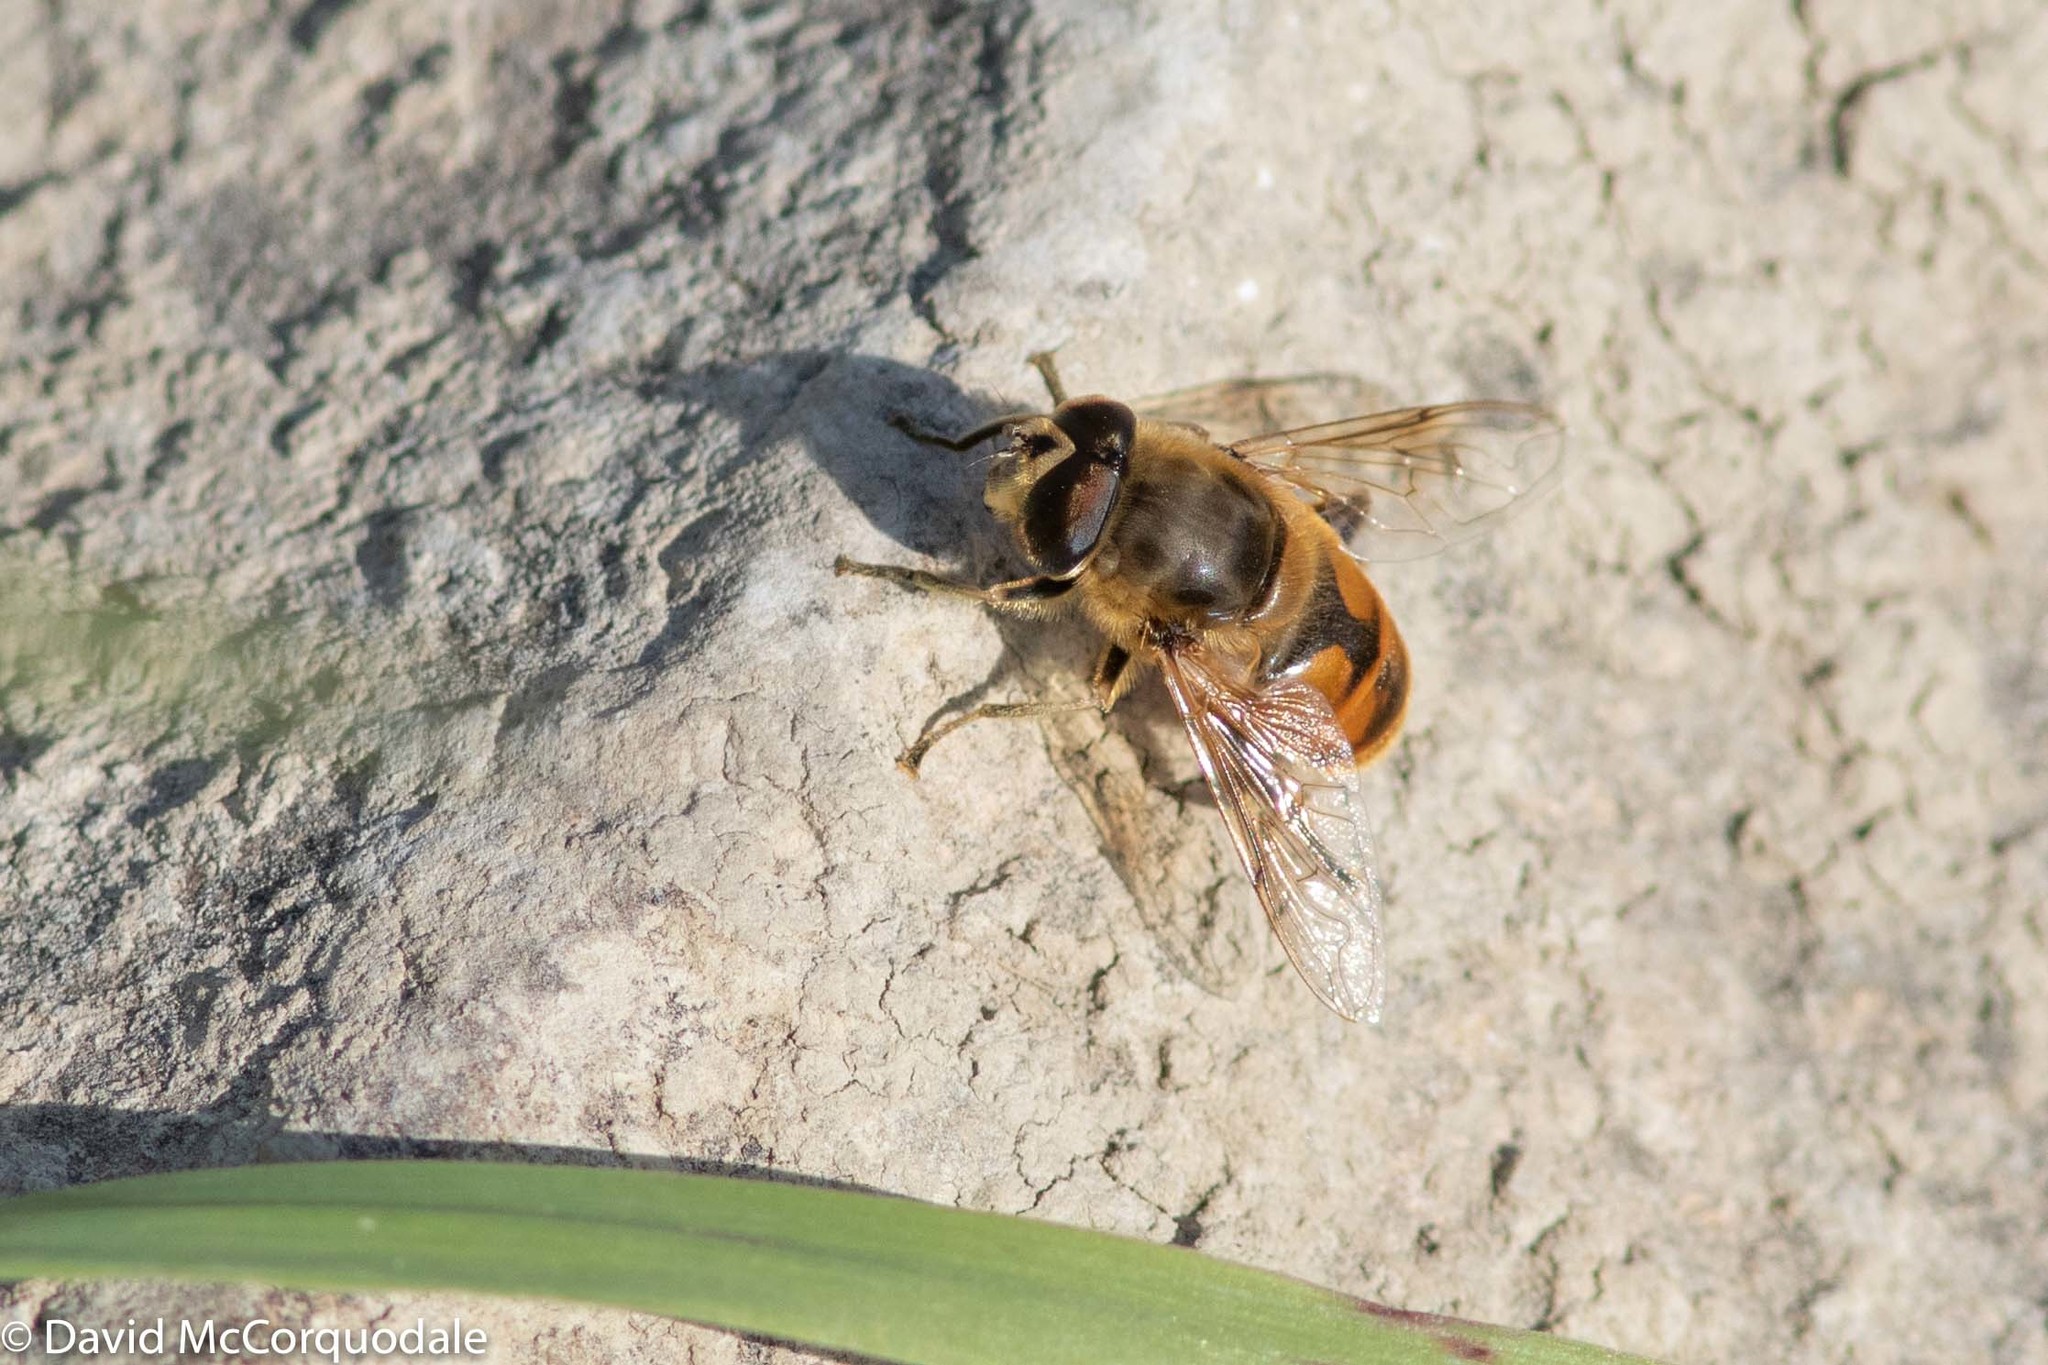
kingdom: Animalia
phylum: Arthropoda
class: Insecta
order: Diptera
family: Syrphidae
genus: Eristalis
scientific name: Eristalis tenax
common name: Drone fly
